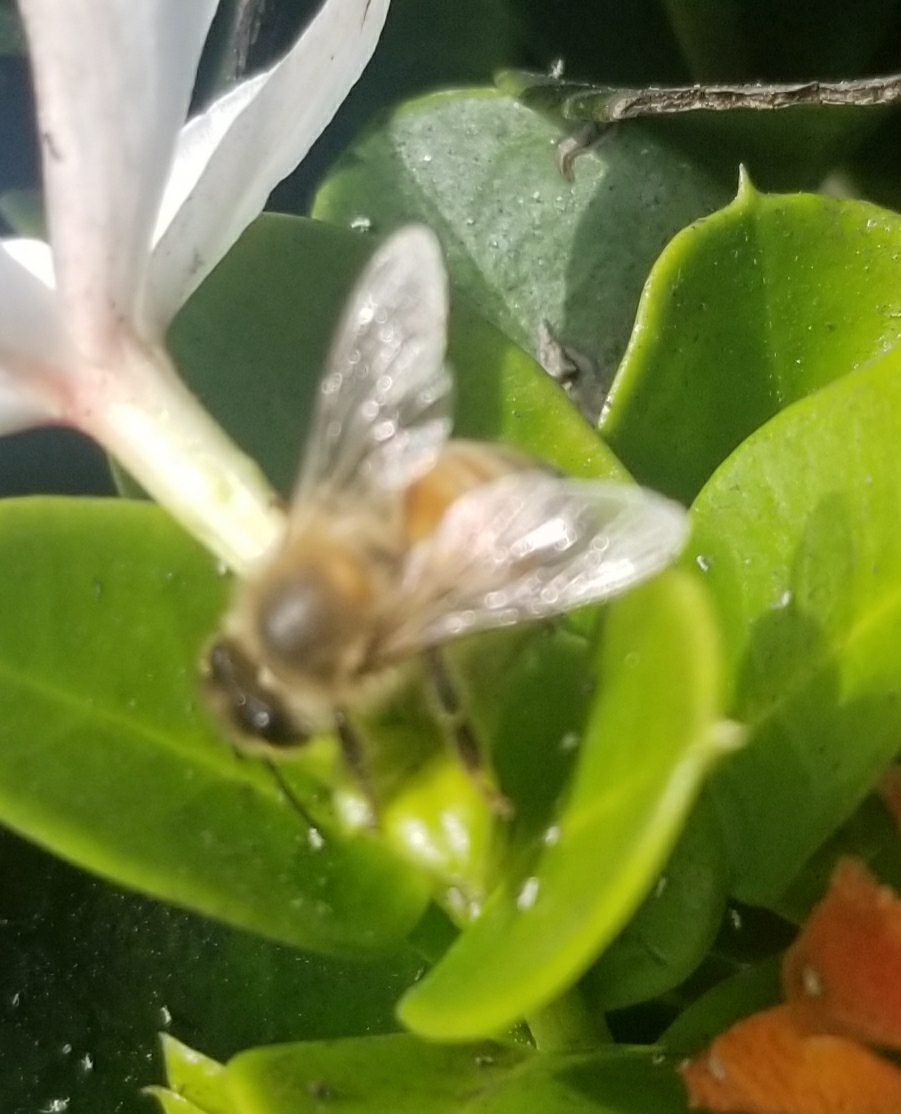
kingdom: Animalia
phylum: Arthropoda
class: Insecta
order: Hymenoptera
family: Apidae
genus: Apis
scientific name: Apis mellifera
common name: Honey bee
